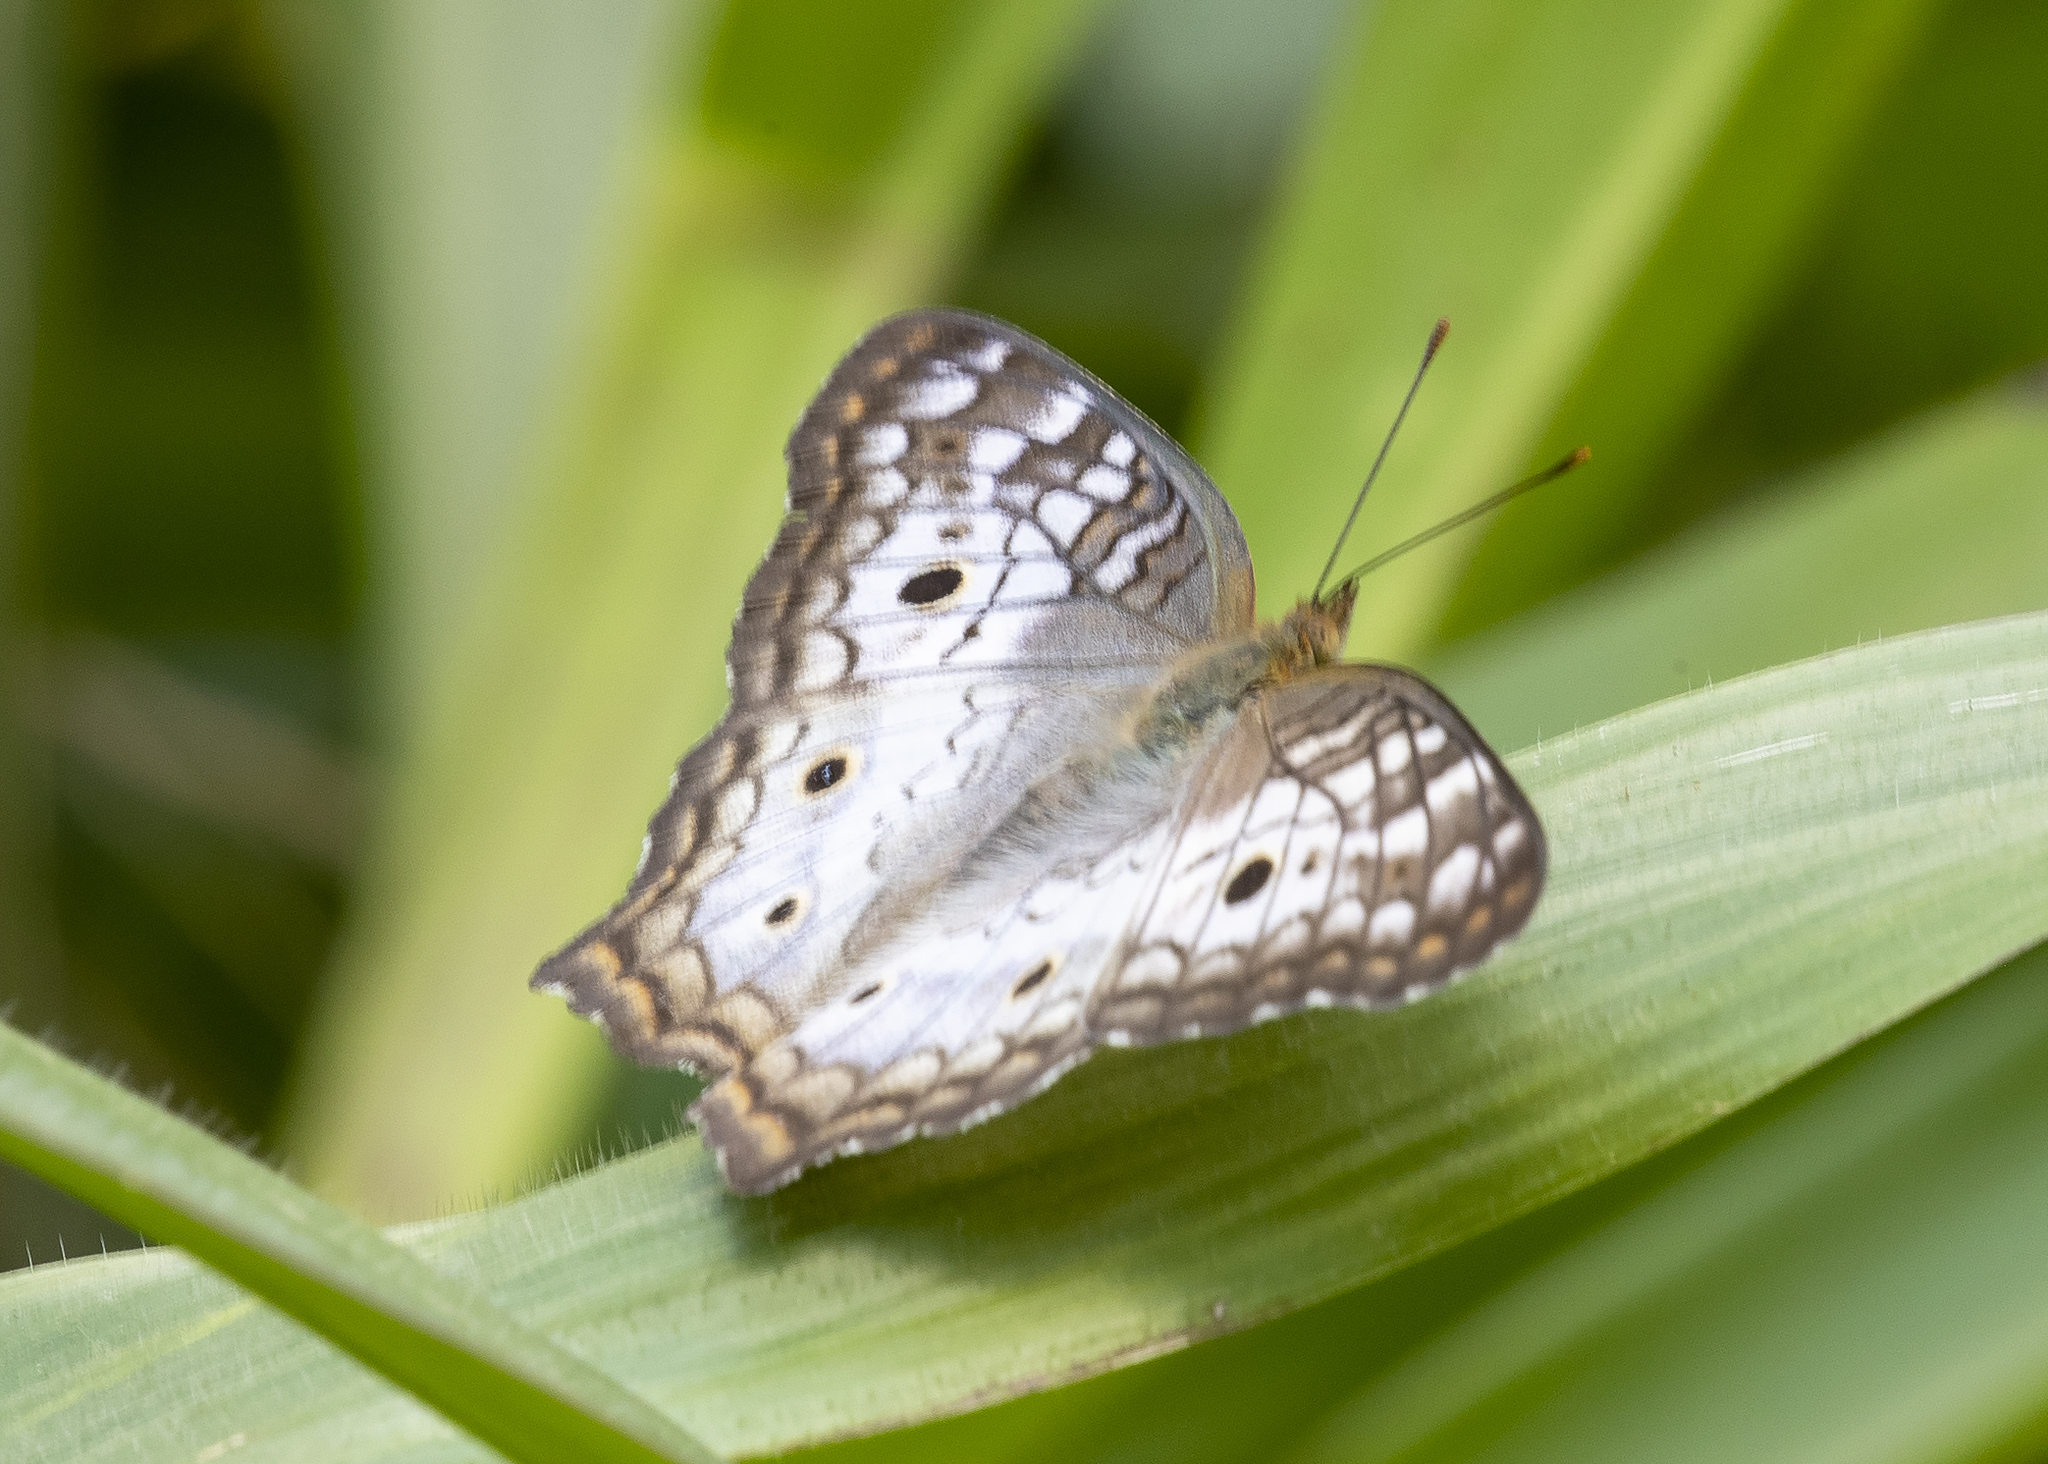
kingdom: Animalia
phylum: Arthropoda
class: Insecta
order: Lepidoptera
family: Nymphalidae
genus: Anartia
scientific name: Anartia jatrophae
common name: White peacock
